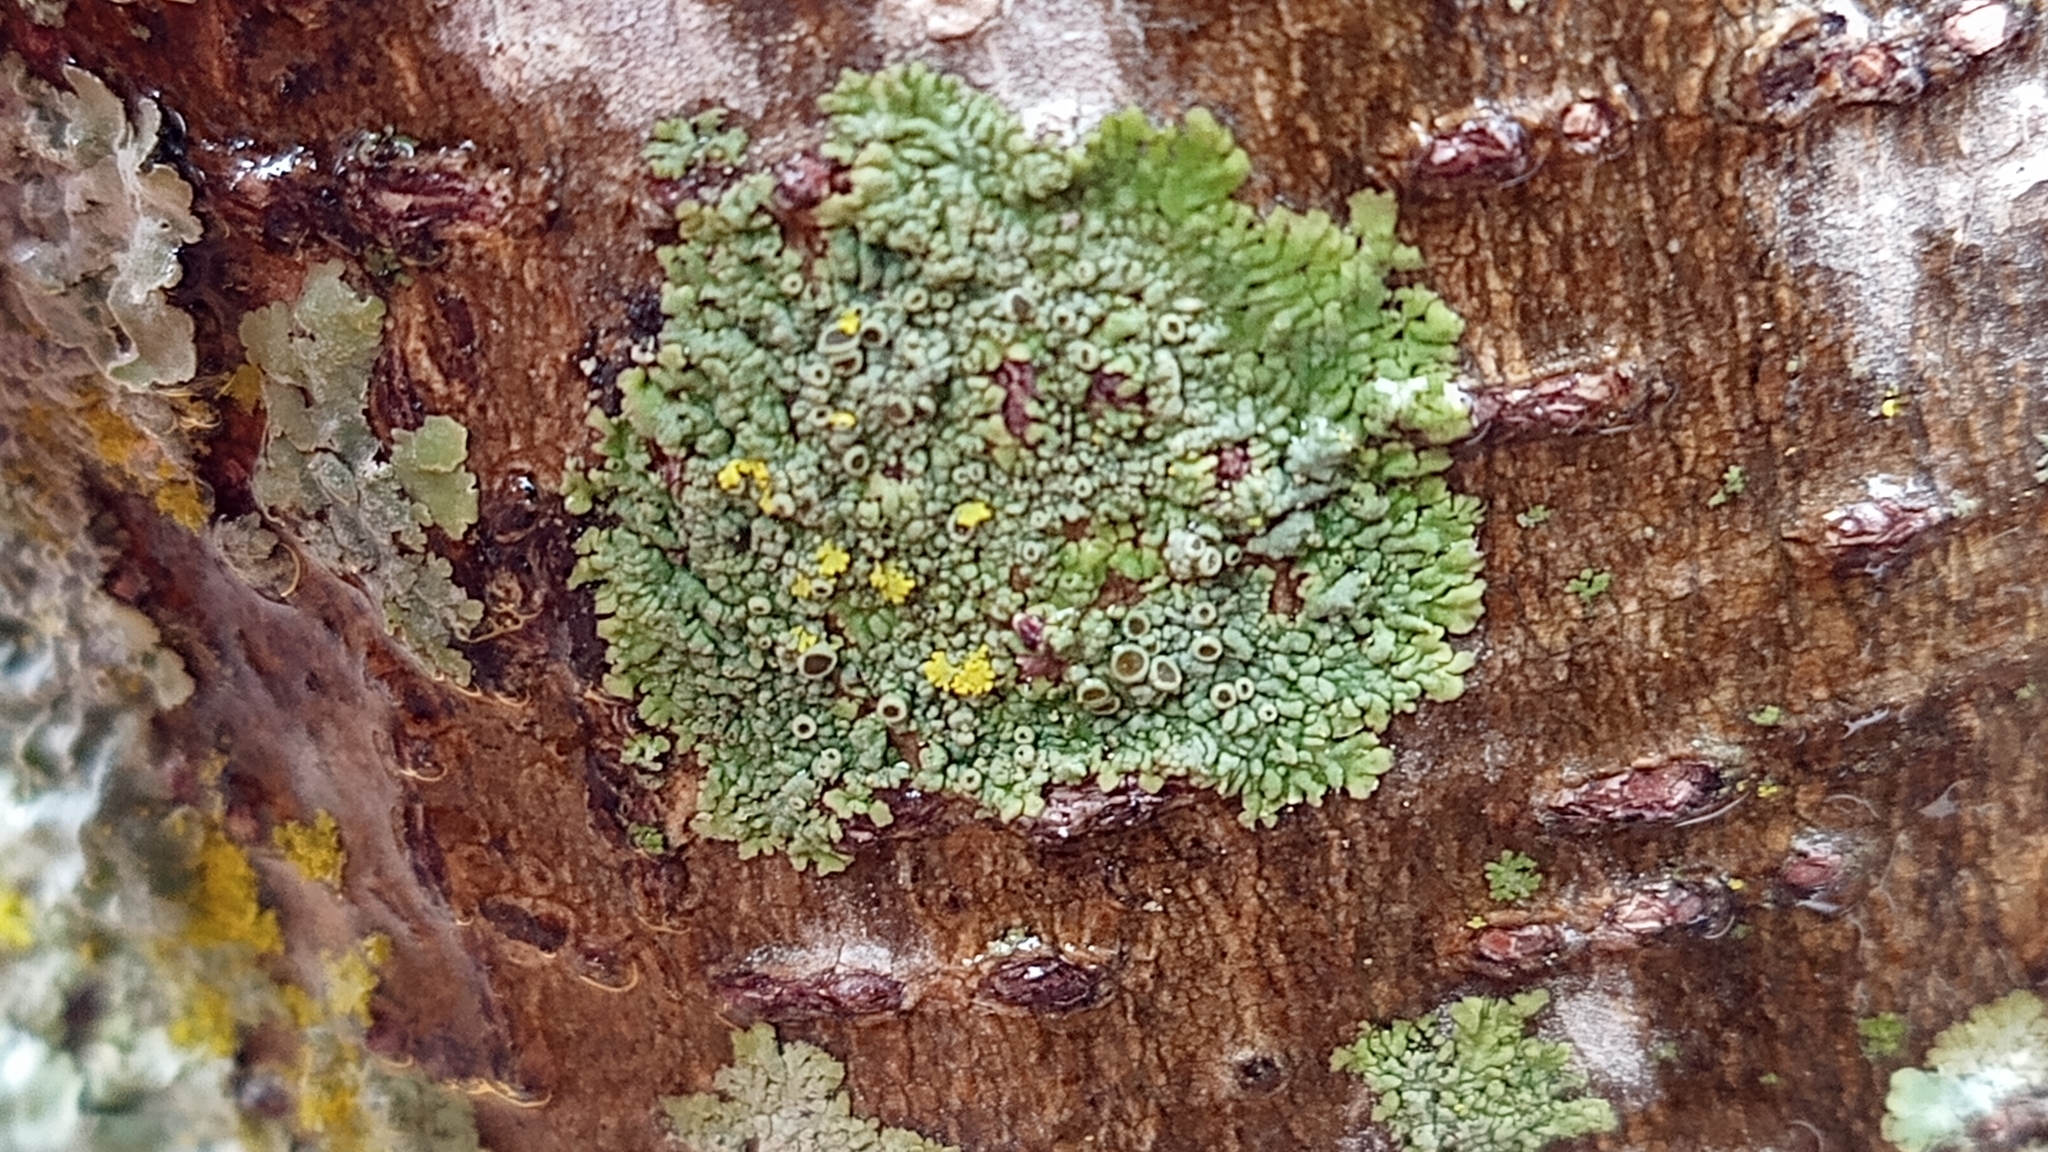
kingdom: Fungi
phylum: Ascomycota
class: Lecanoromycetes
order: Caliciales
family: Physciaceae
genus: Hyperphyscia
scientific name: Hyperphyscia syncolla
